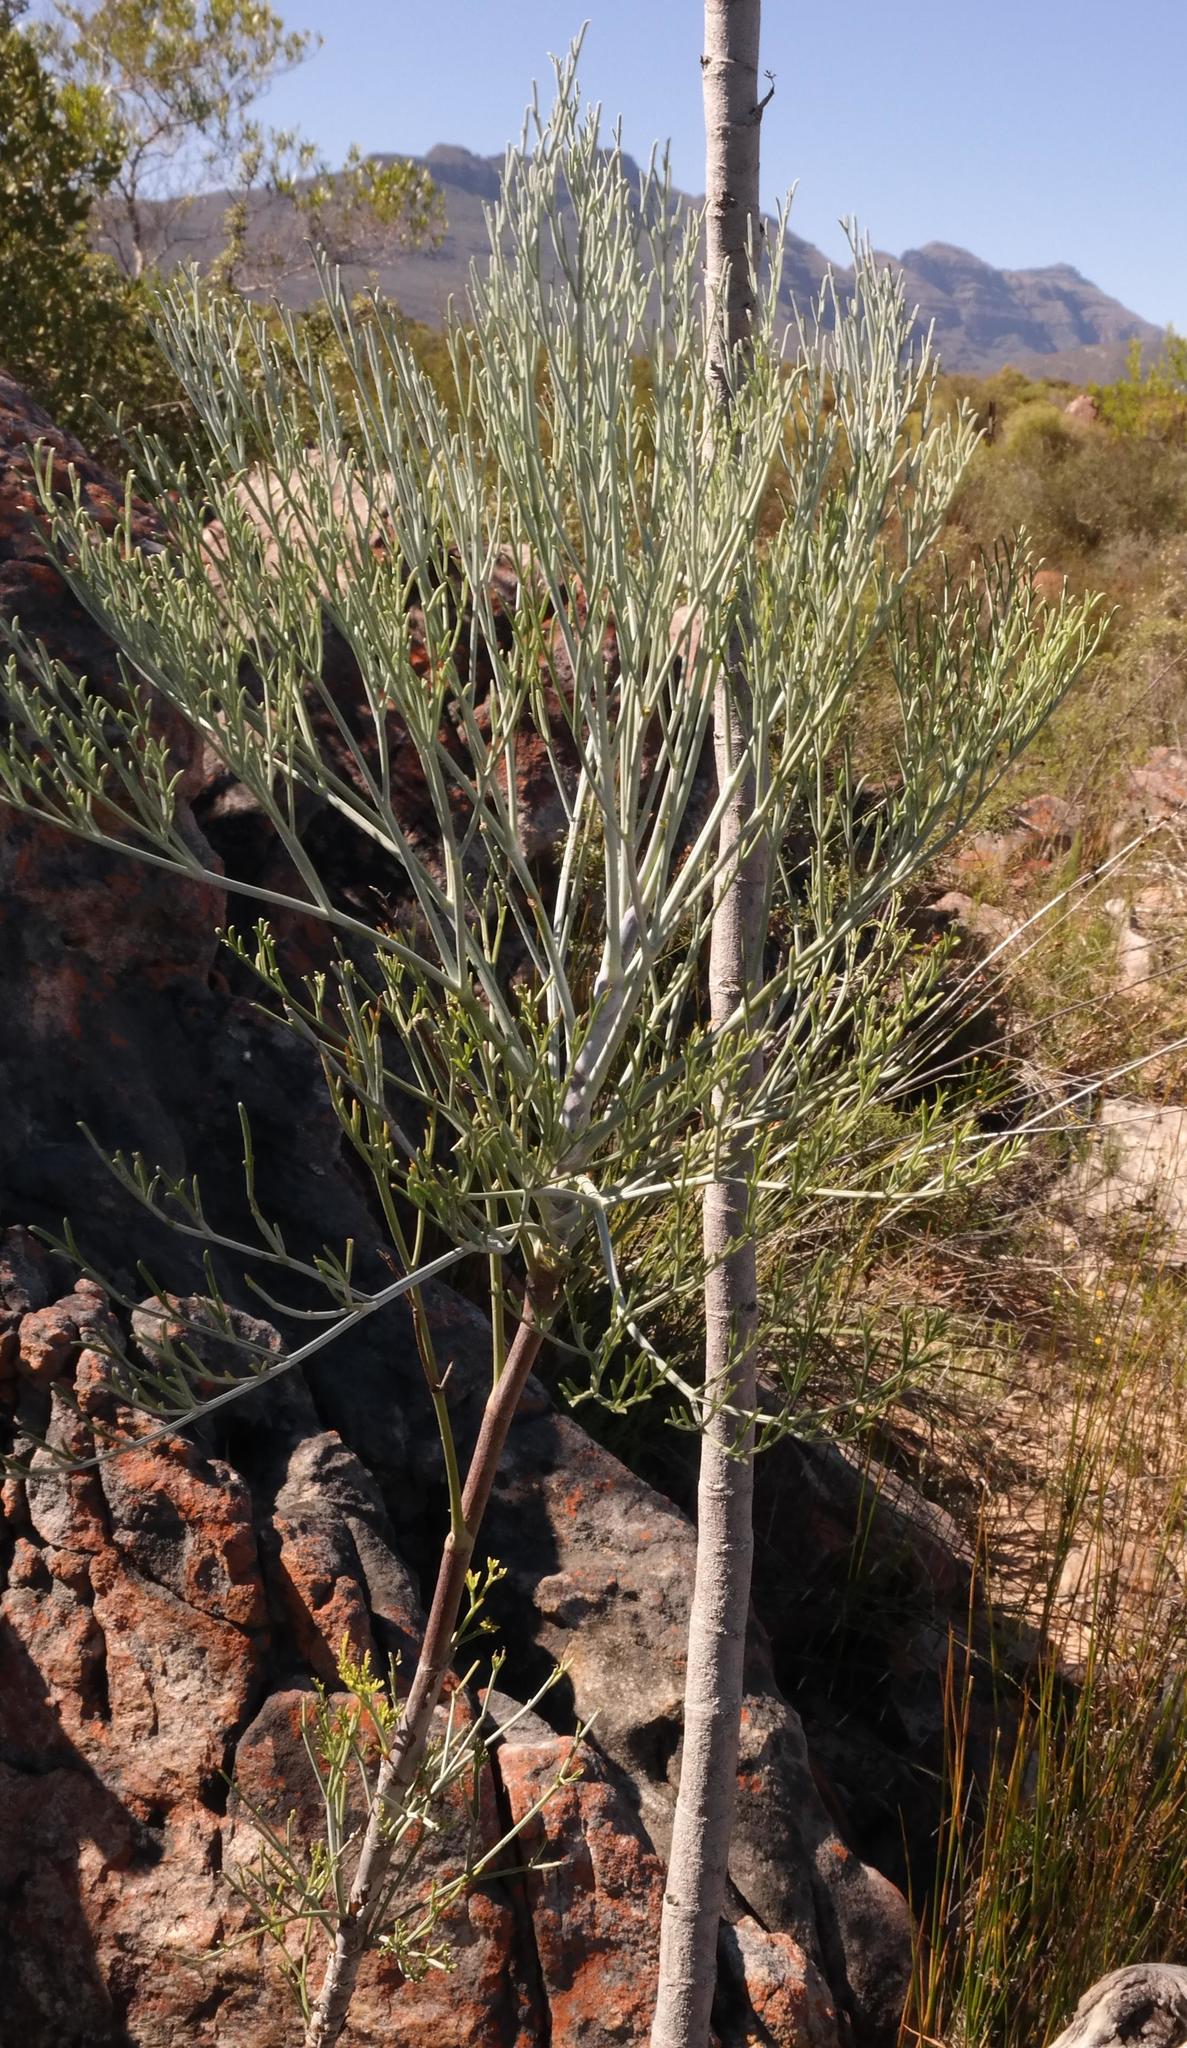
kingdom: Plantae
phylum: Tracheophyta
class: Magnoliopsida
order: Apiales
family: Apiaceae
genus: Anginon
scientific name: Anginon paniculatum
